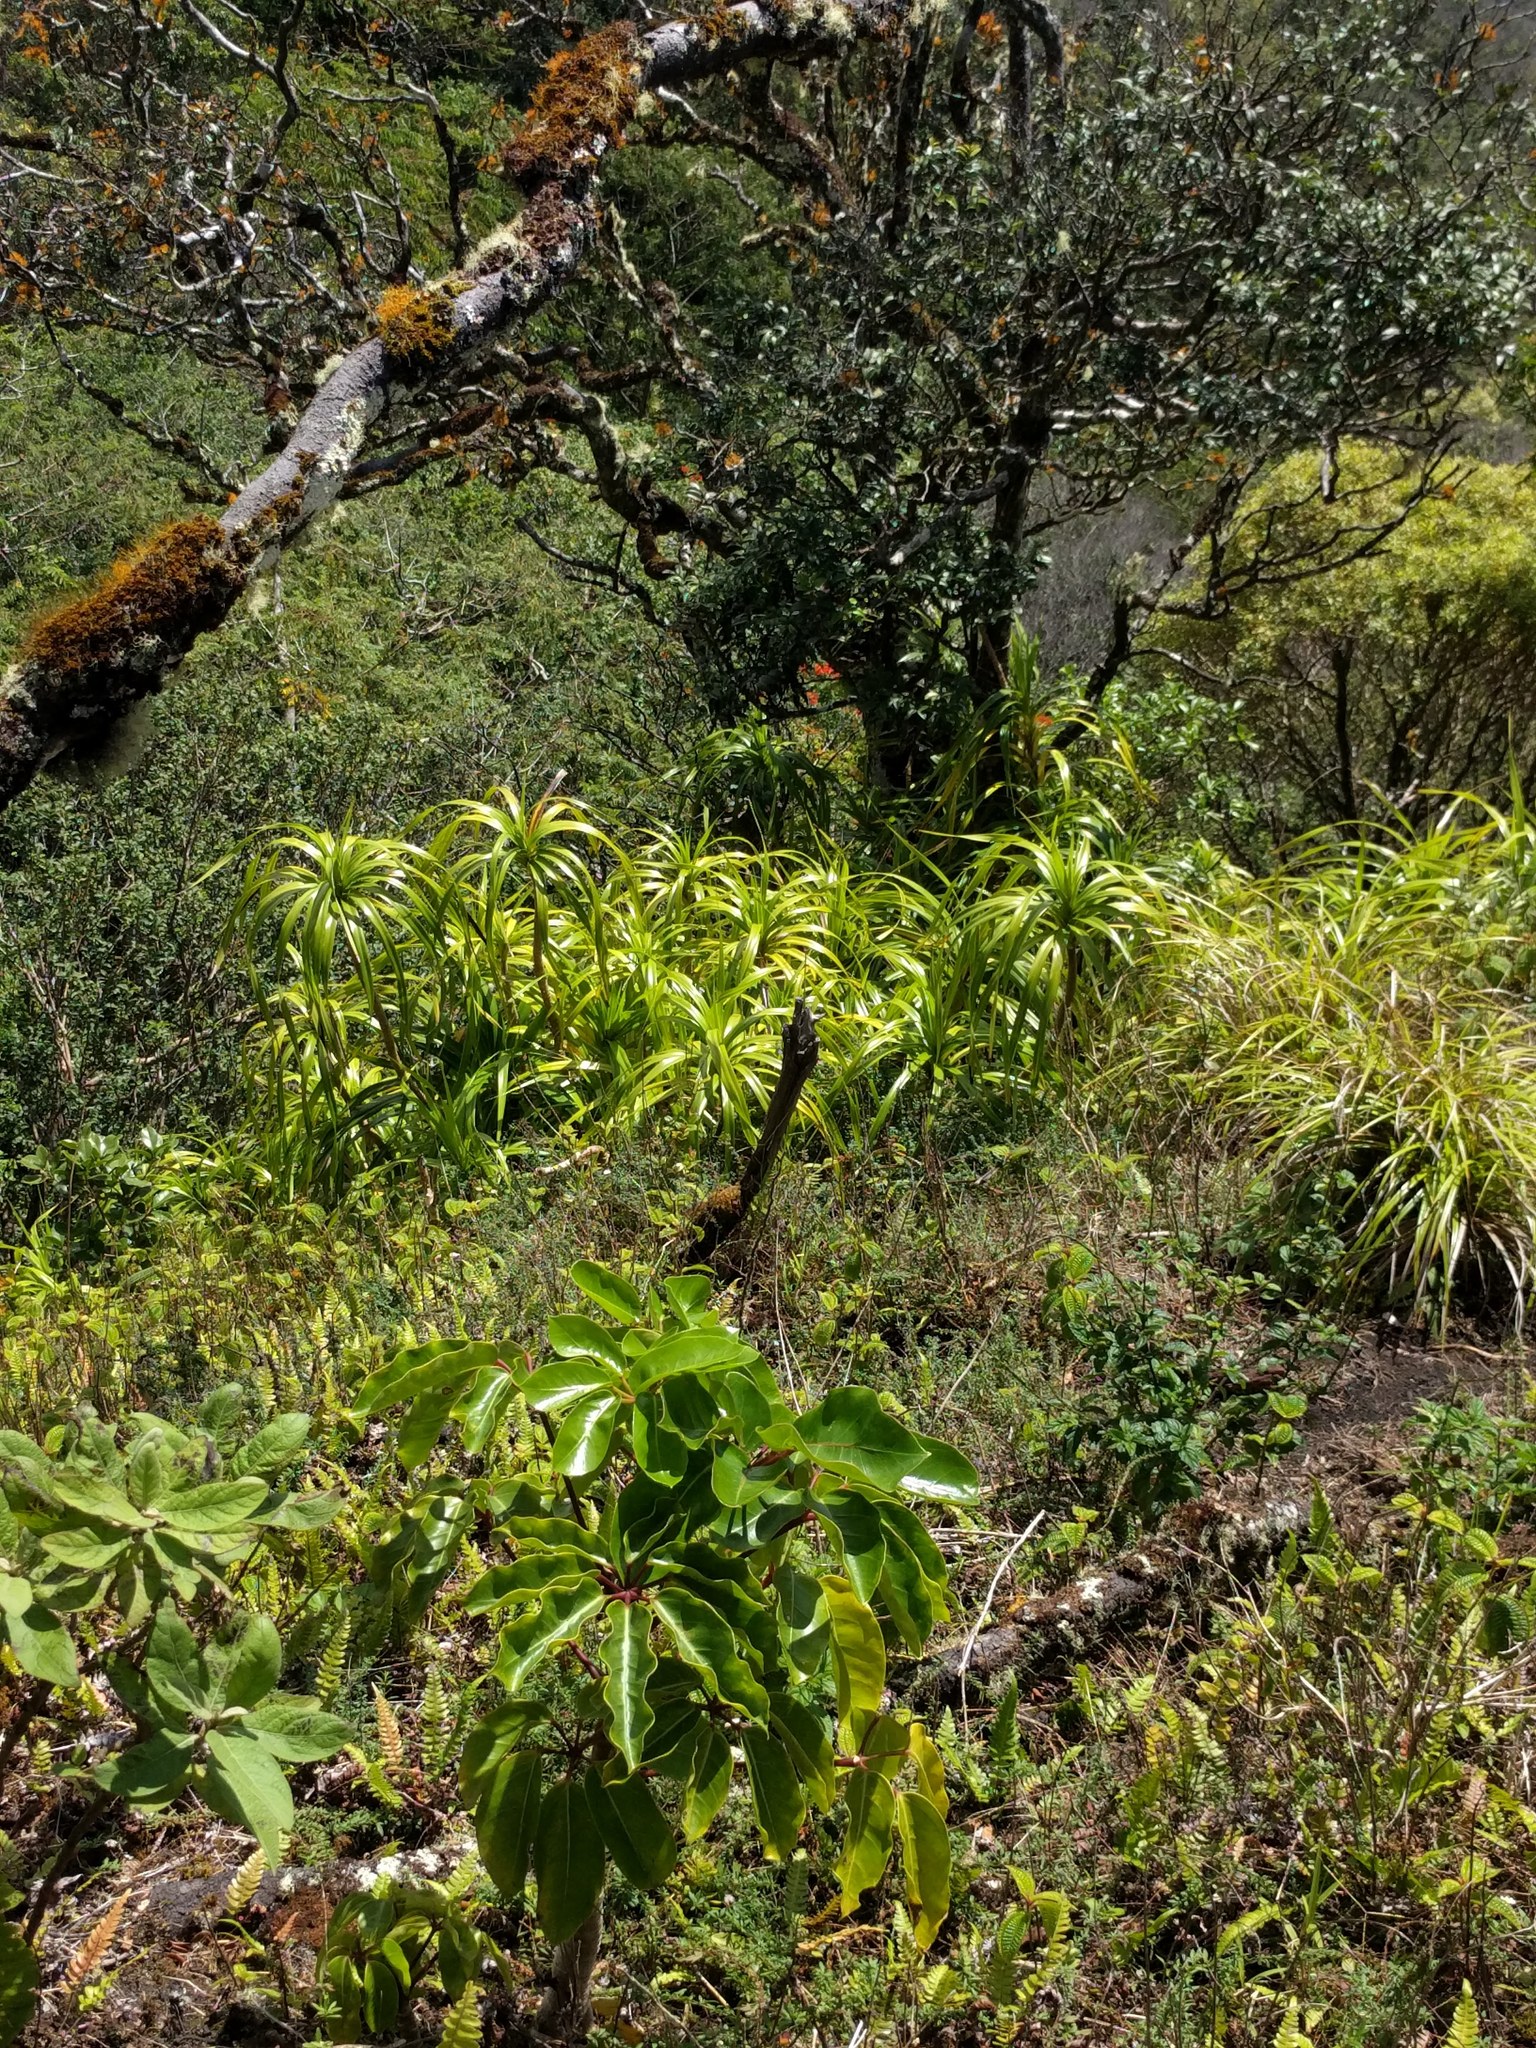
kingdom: Plantae
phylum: Tracheophyta
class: Liliopsida
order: Pandanales
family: Pandanaceae
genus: Freycinetia
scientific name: Freycinetia arborea
